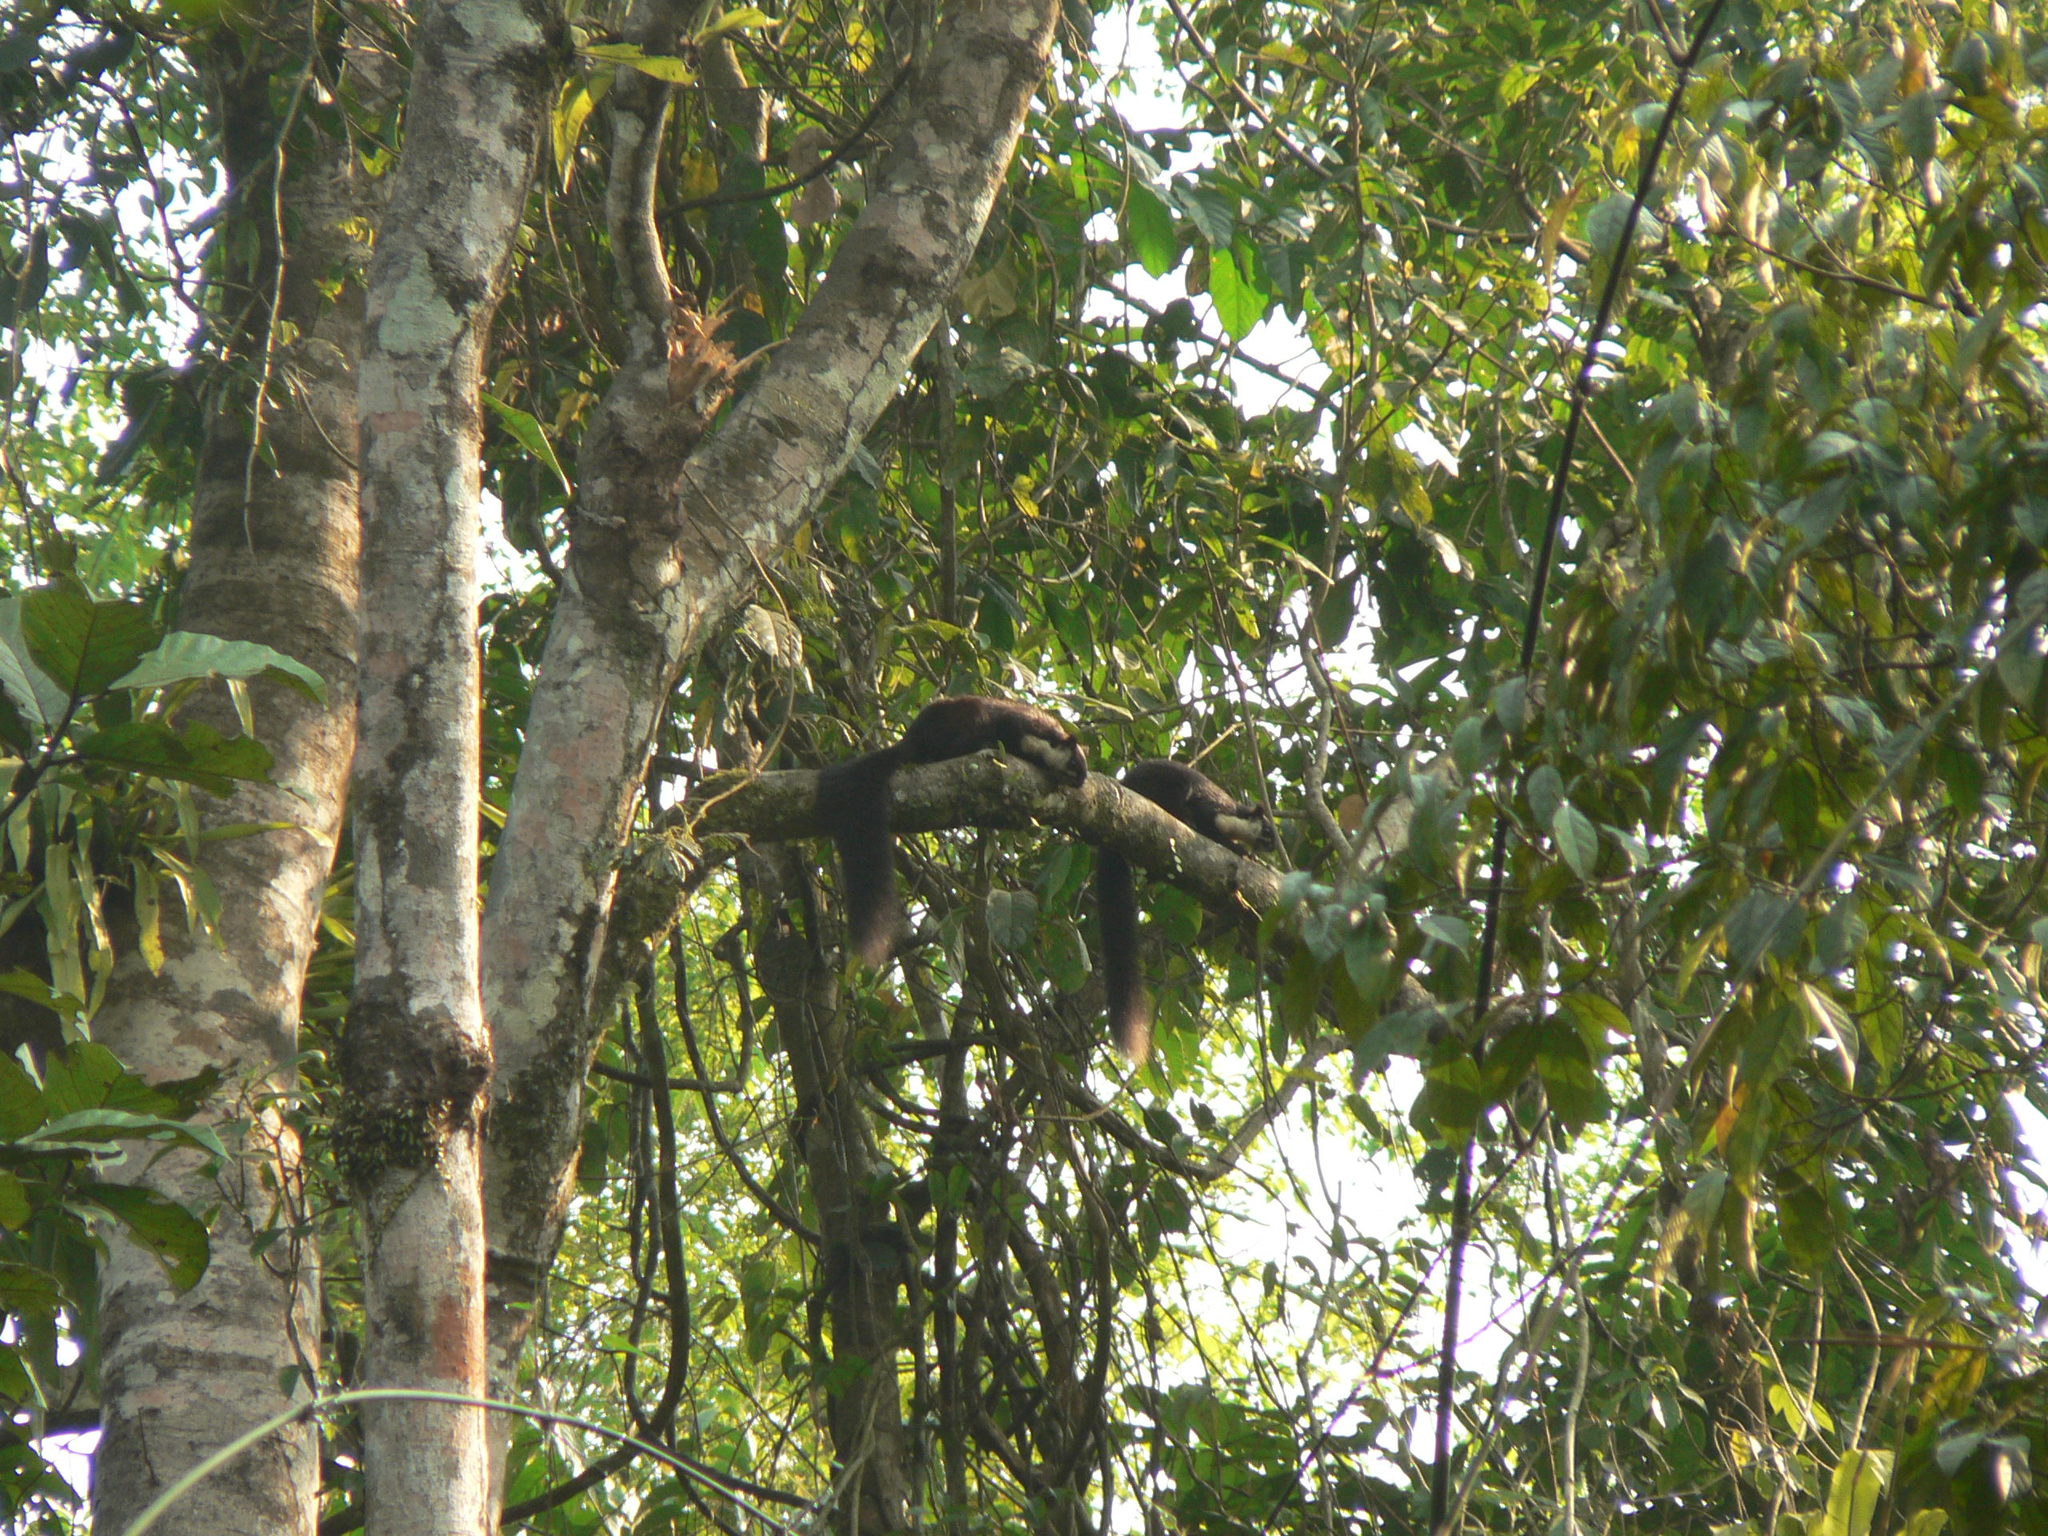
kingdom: Animalia
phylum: Chordata
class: Mammalia
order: Rodentia
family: Sciuridae
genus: Ratufa
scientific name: Ratufa bicolor
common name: Black giant squirrel
